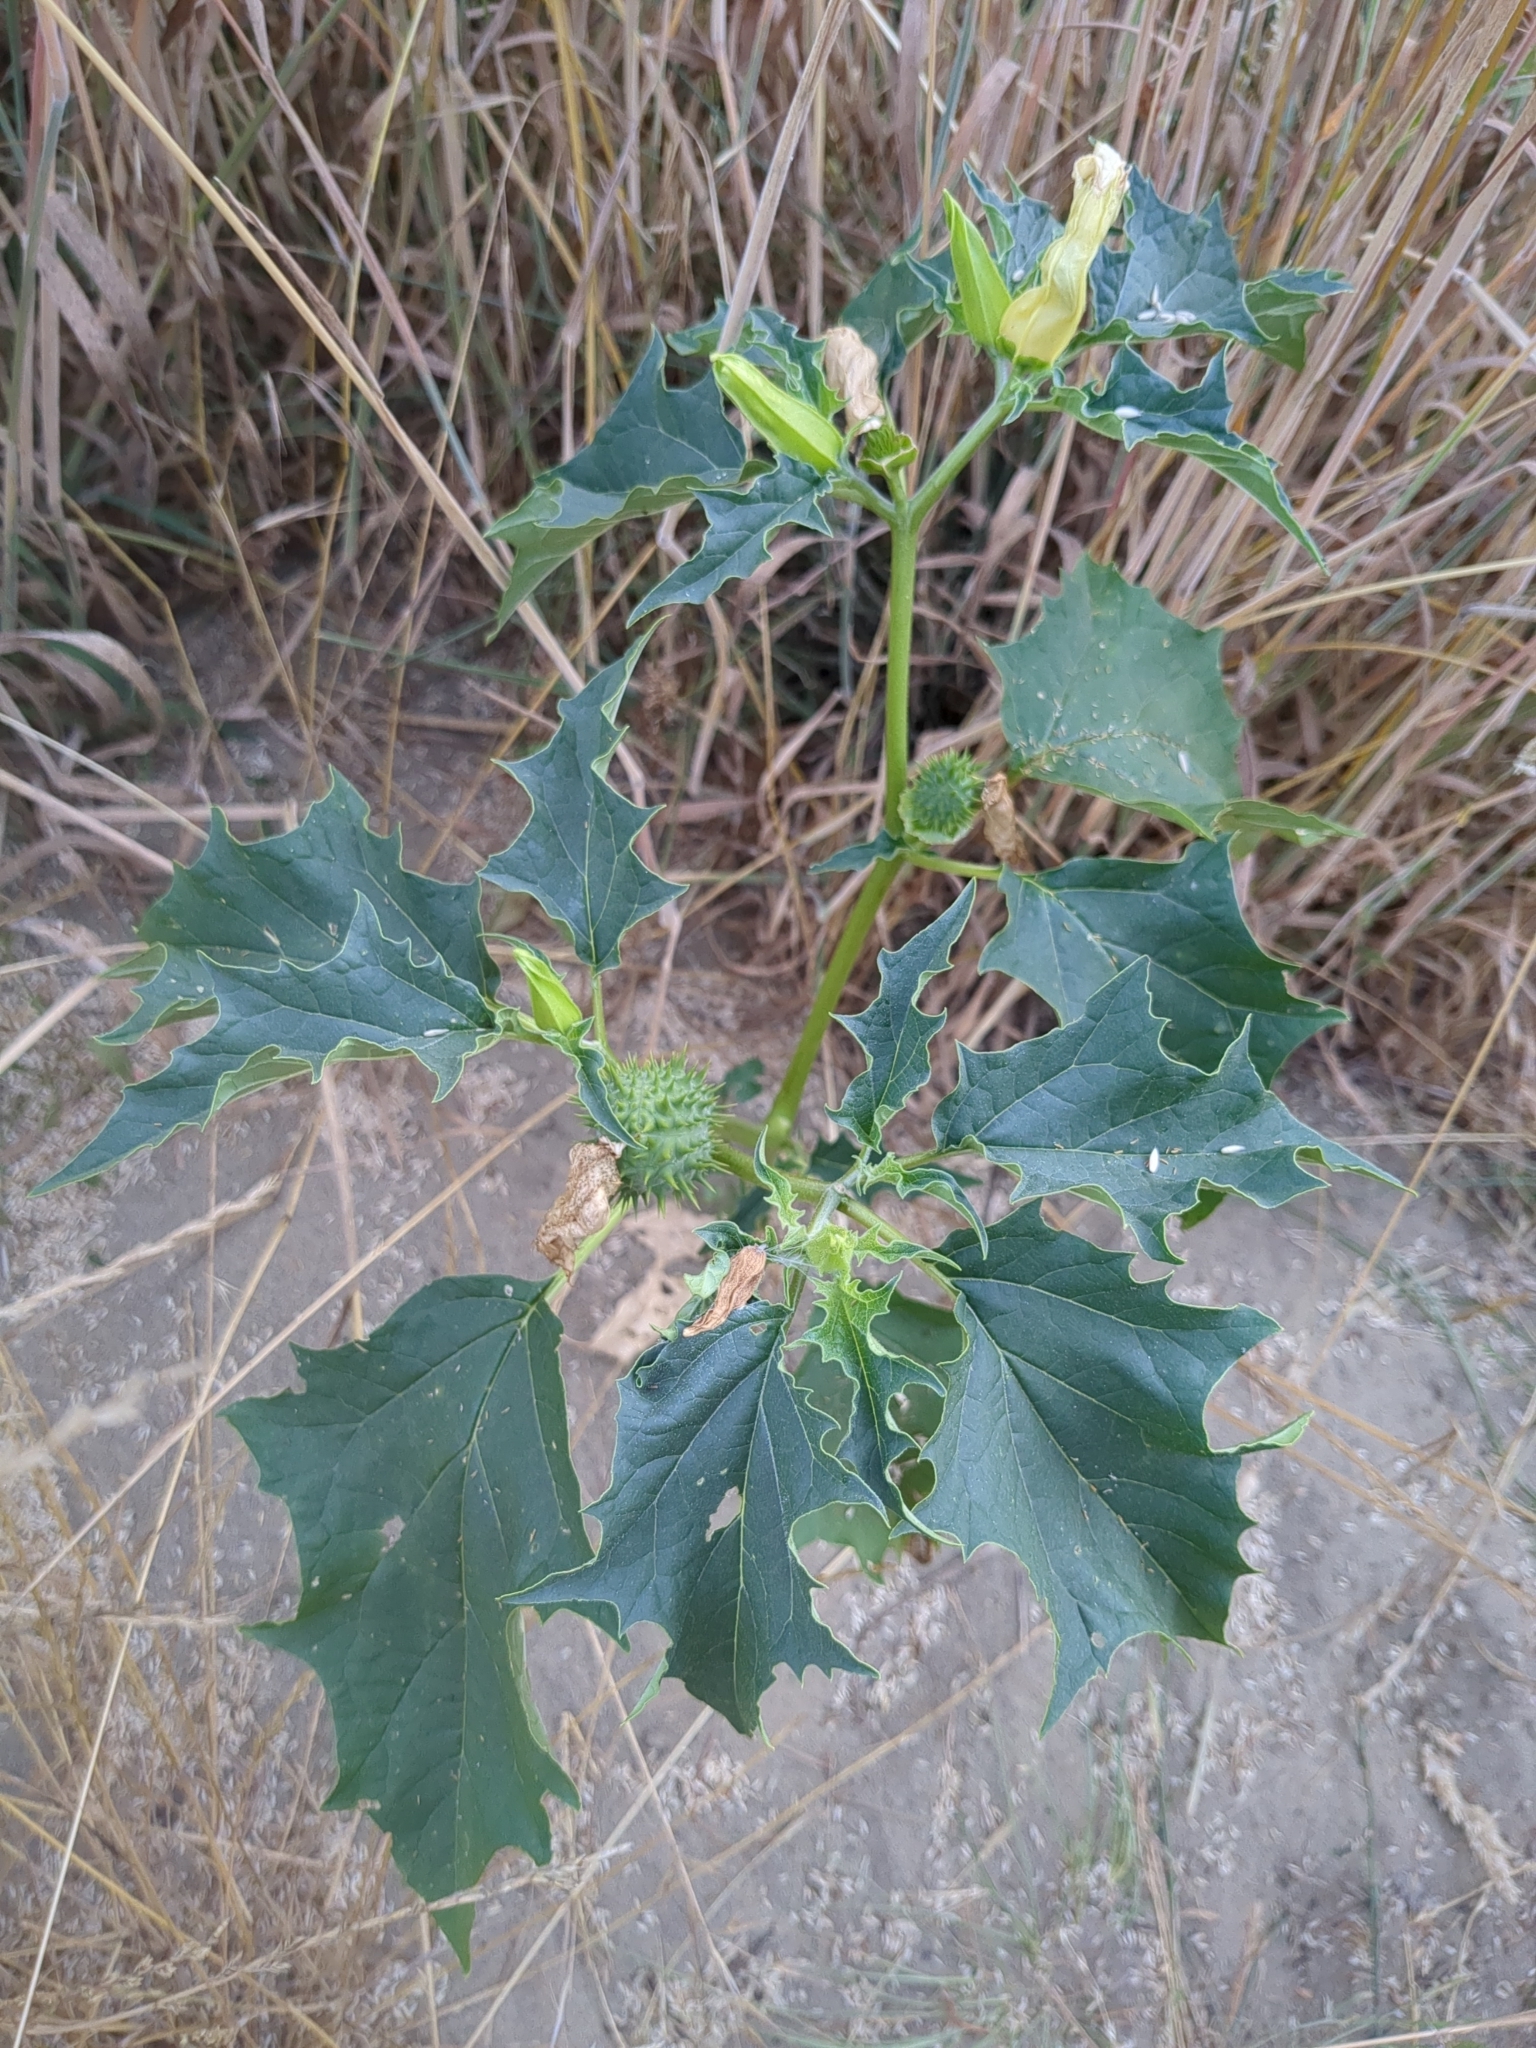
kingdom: Plantae
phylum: Tracheophyta
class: Magnoliopsida
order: Solanales
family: Solanaceae
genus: Datura
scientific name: Datura stramonium
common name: Thorn-apple
